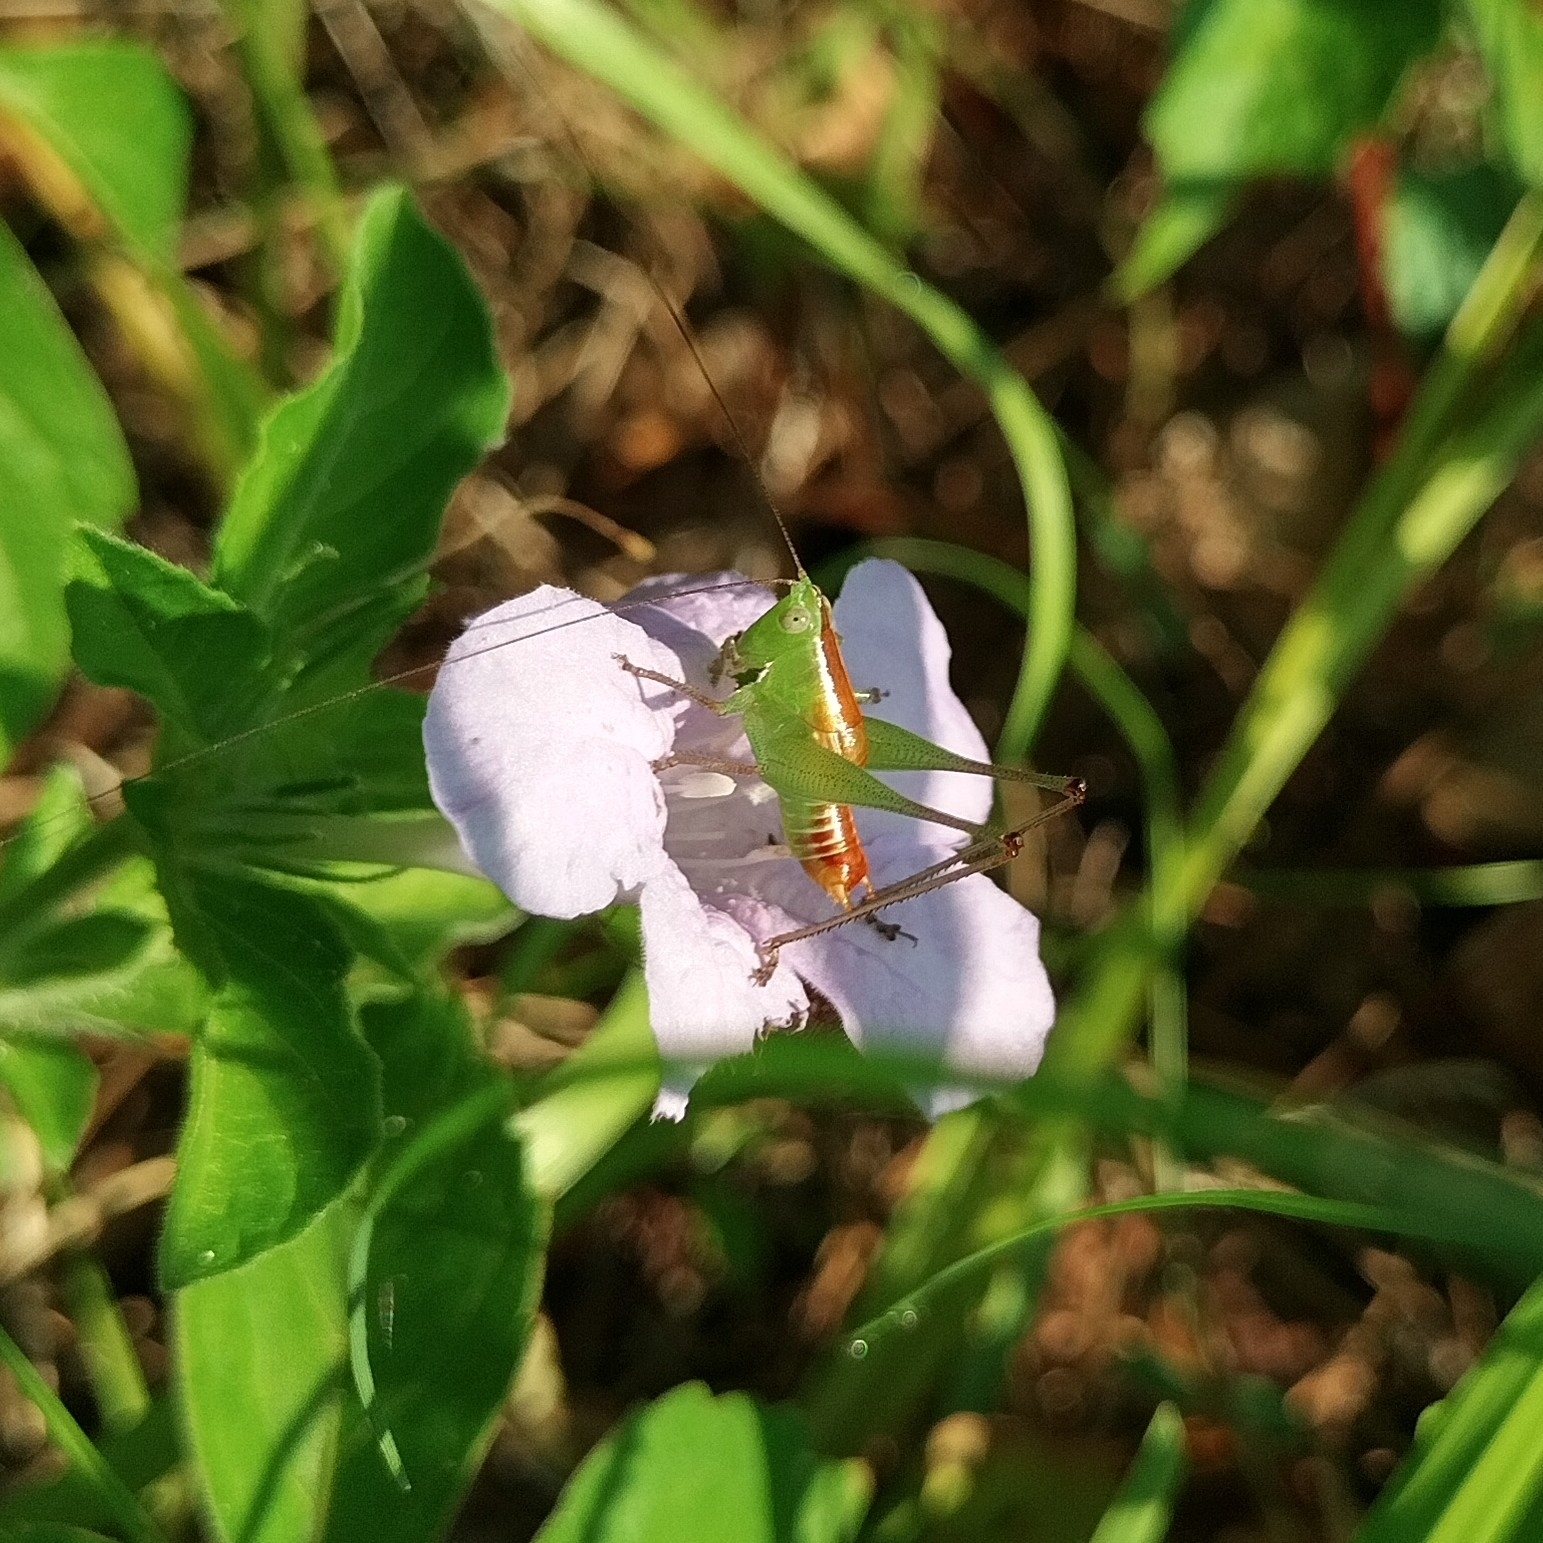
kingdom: Animalia
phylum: Arthropoda
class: Insecta
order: Orthoptera
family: Tettigoniidae
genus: Odontoxiphidium
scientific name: Odontoxiphidium apterum
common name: Wingless meadow katydid
